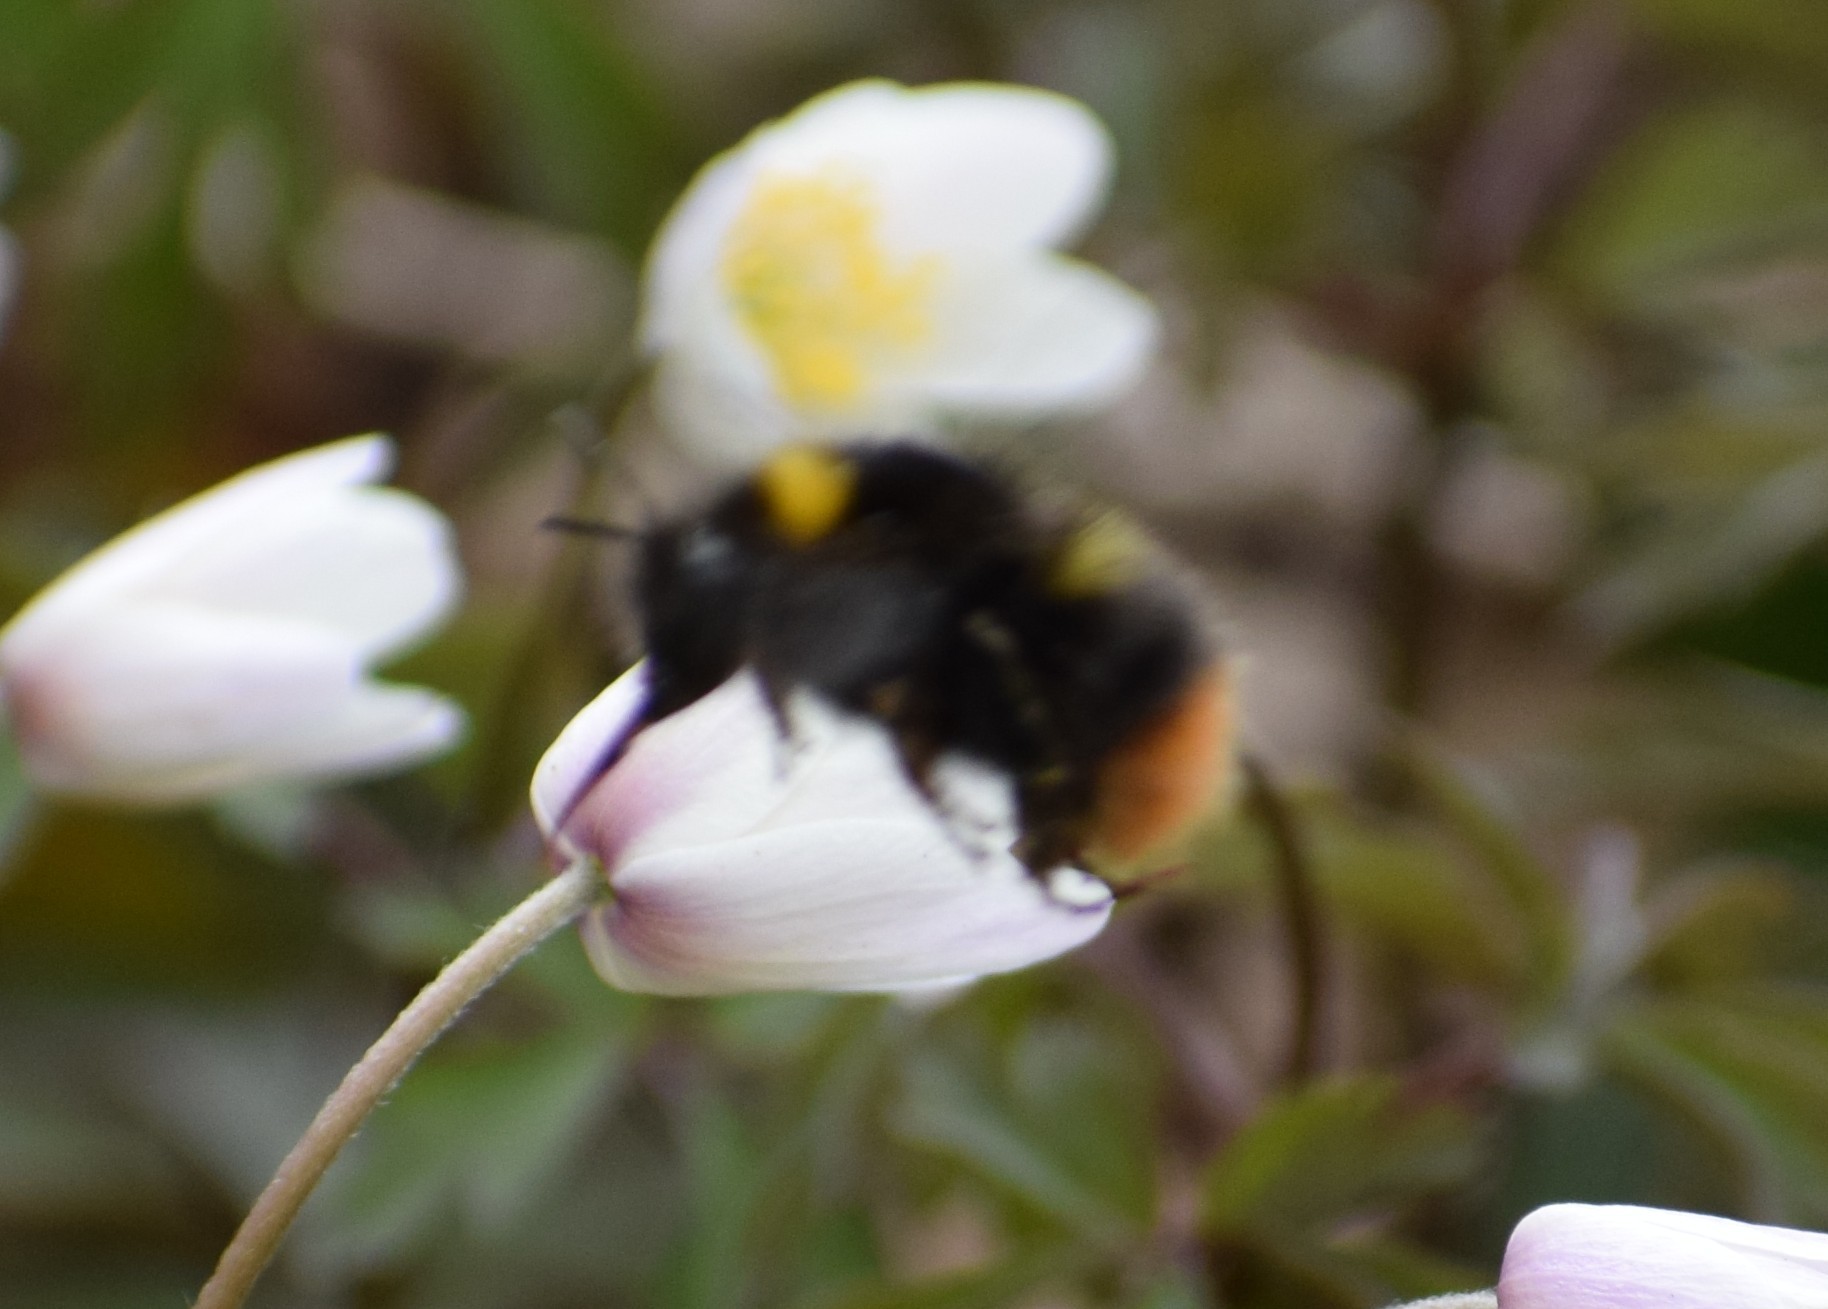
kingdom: Animalia
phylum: Arthropoda
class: Insecta
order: Hymenoptera
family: Apidae
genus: Bombus
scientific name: Bombus pratorum
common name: Early humble-bee
